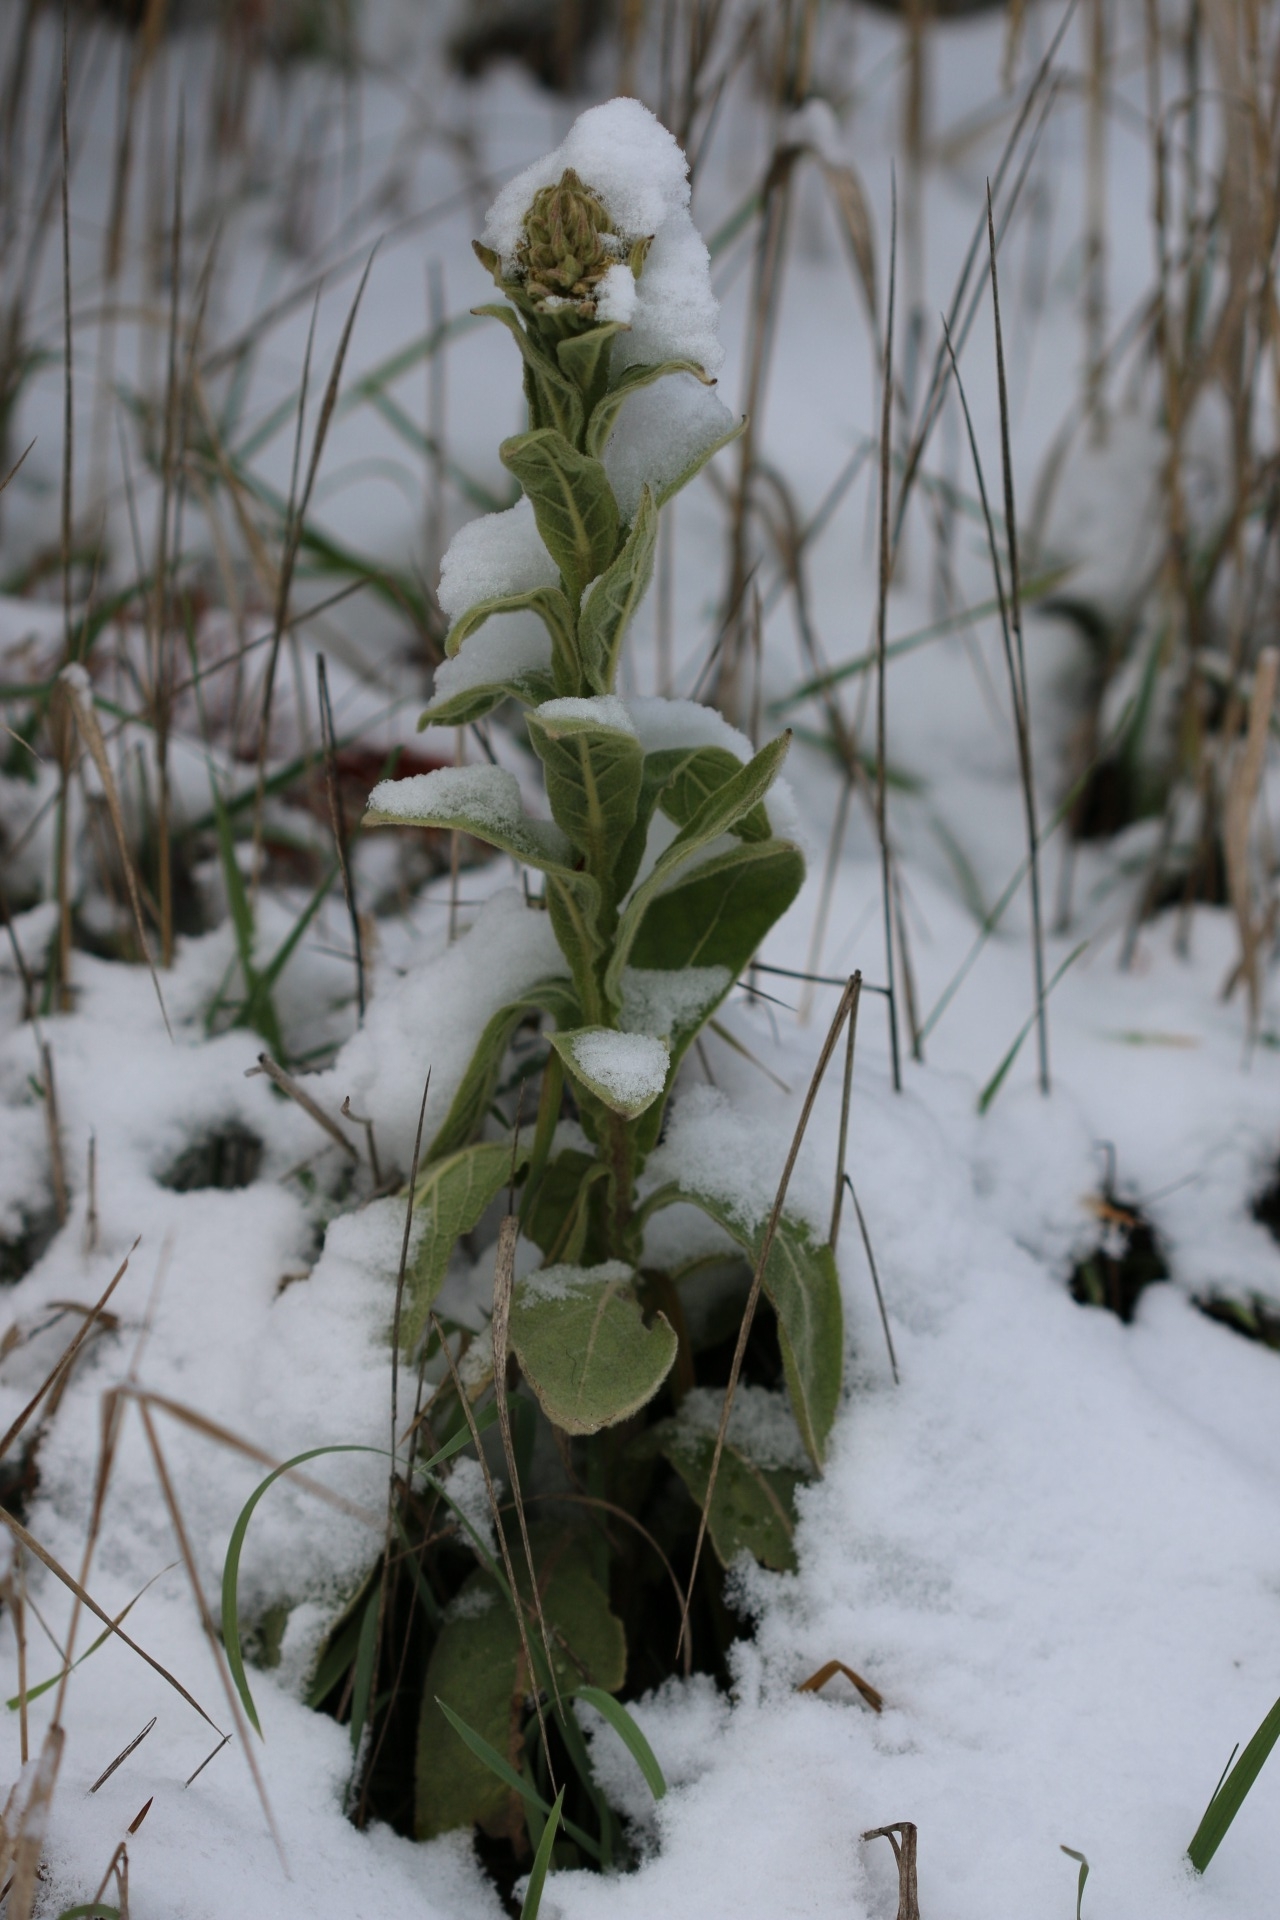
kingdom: Plantae
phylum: Tracheophyta
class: Magnoliopsida
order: Lamiales
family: Scrophulariaceae
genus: Verbascum
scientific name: Verbascum thapsus
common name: Common mullein
